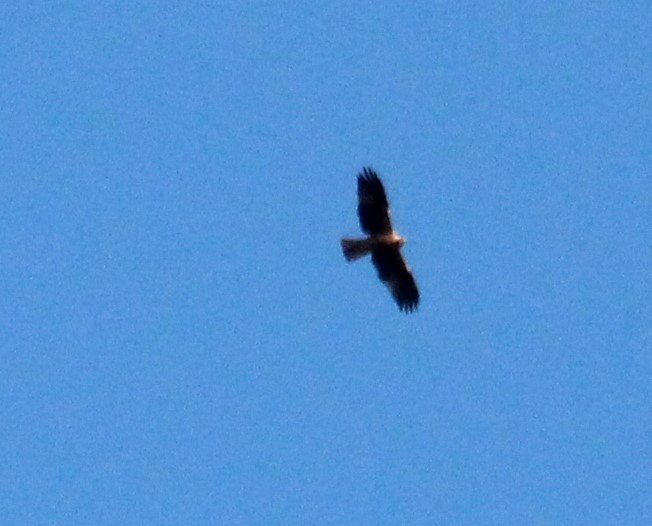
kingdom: Animalia
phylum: Chordata
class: Aves
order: Accipitriformes
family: Accipitridae
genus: Hieraaetus
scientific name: Hieraaetus pennatus
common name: Booted eagle
